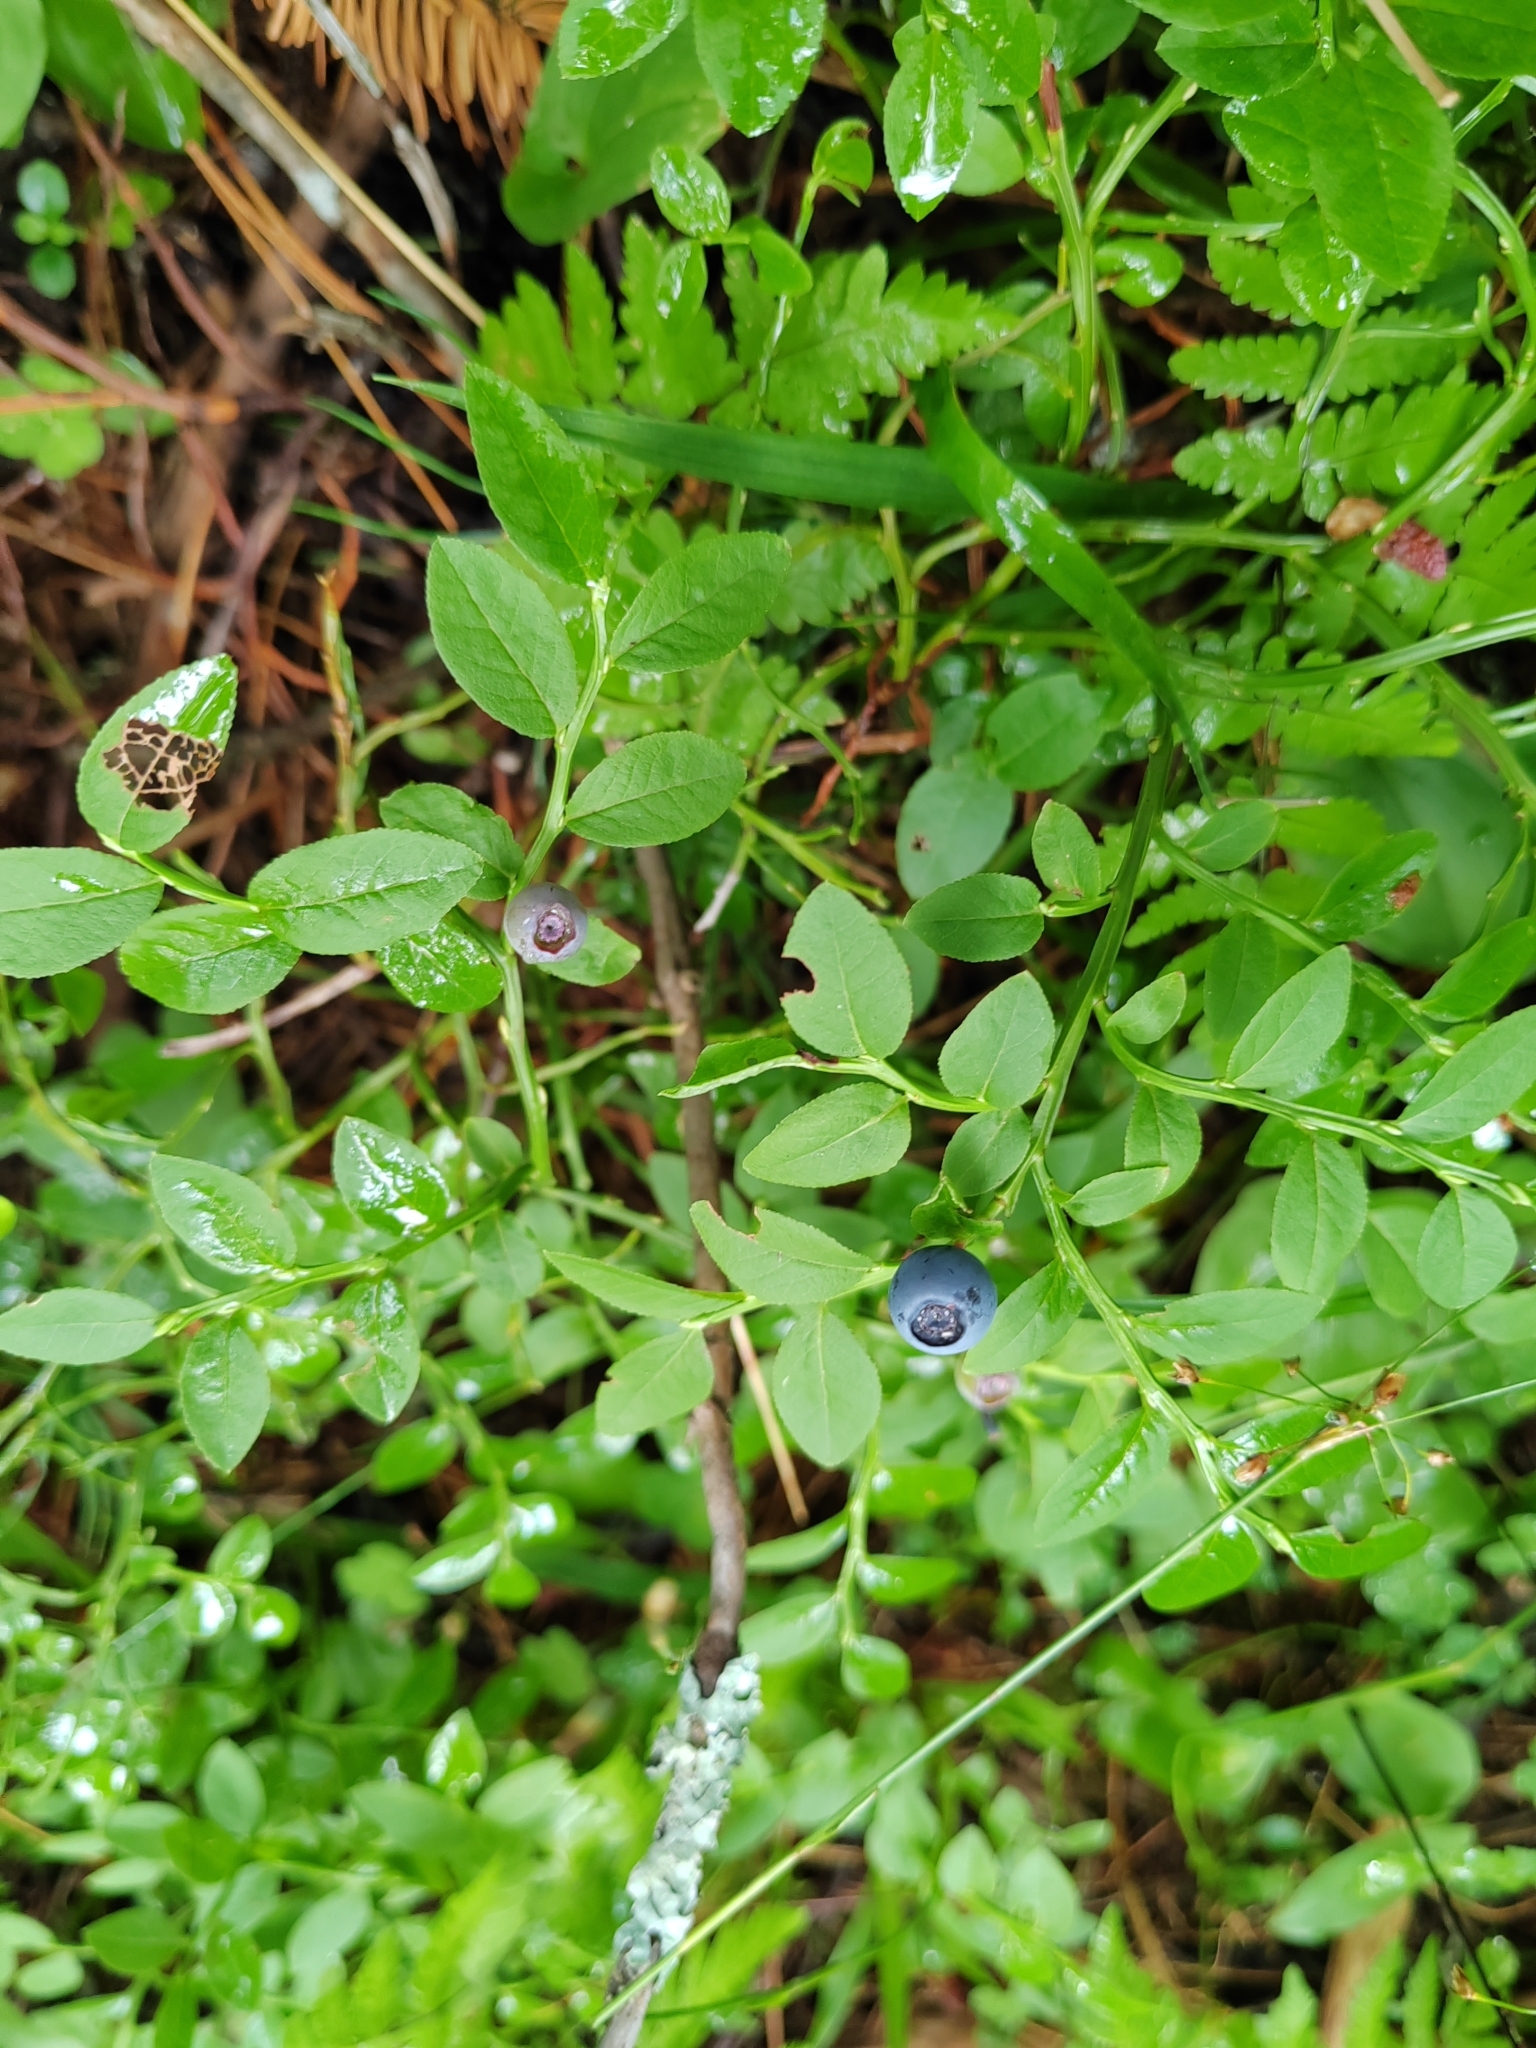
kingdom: Plantae
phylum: Tracheophyta
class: Magnoliopsida
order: Ericales
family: Ericaceae
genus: Vaccinium
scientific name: Vaccinium myrtillus
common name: Bilberry
